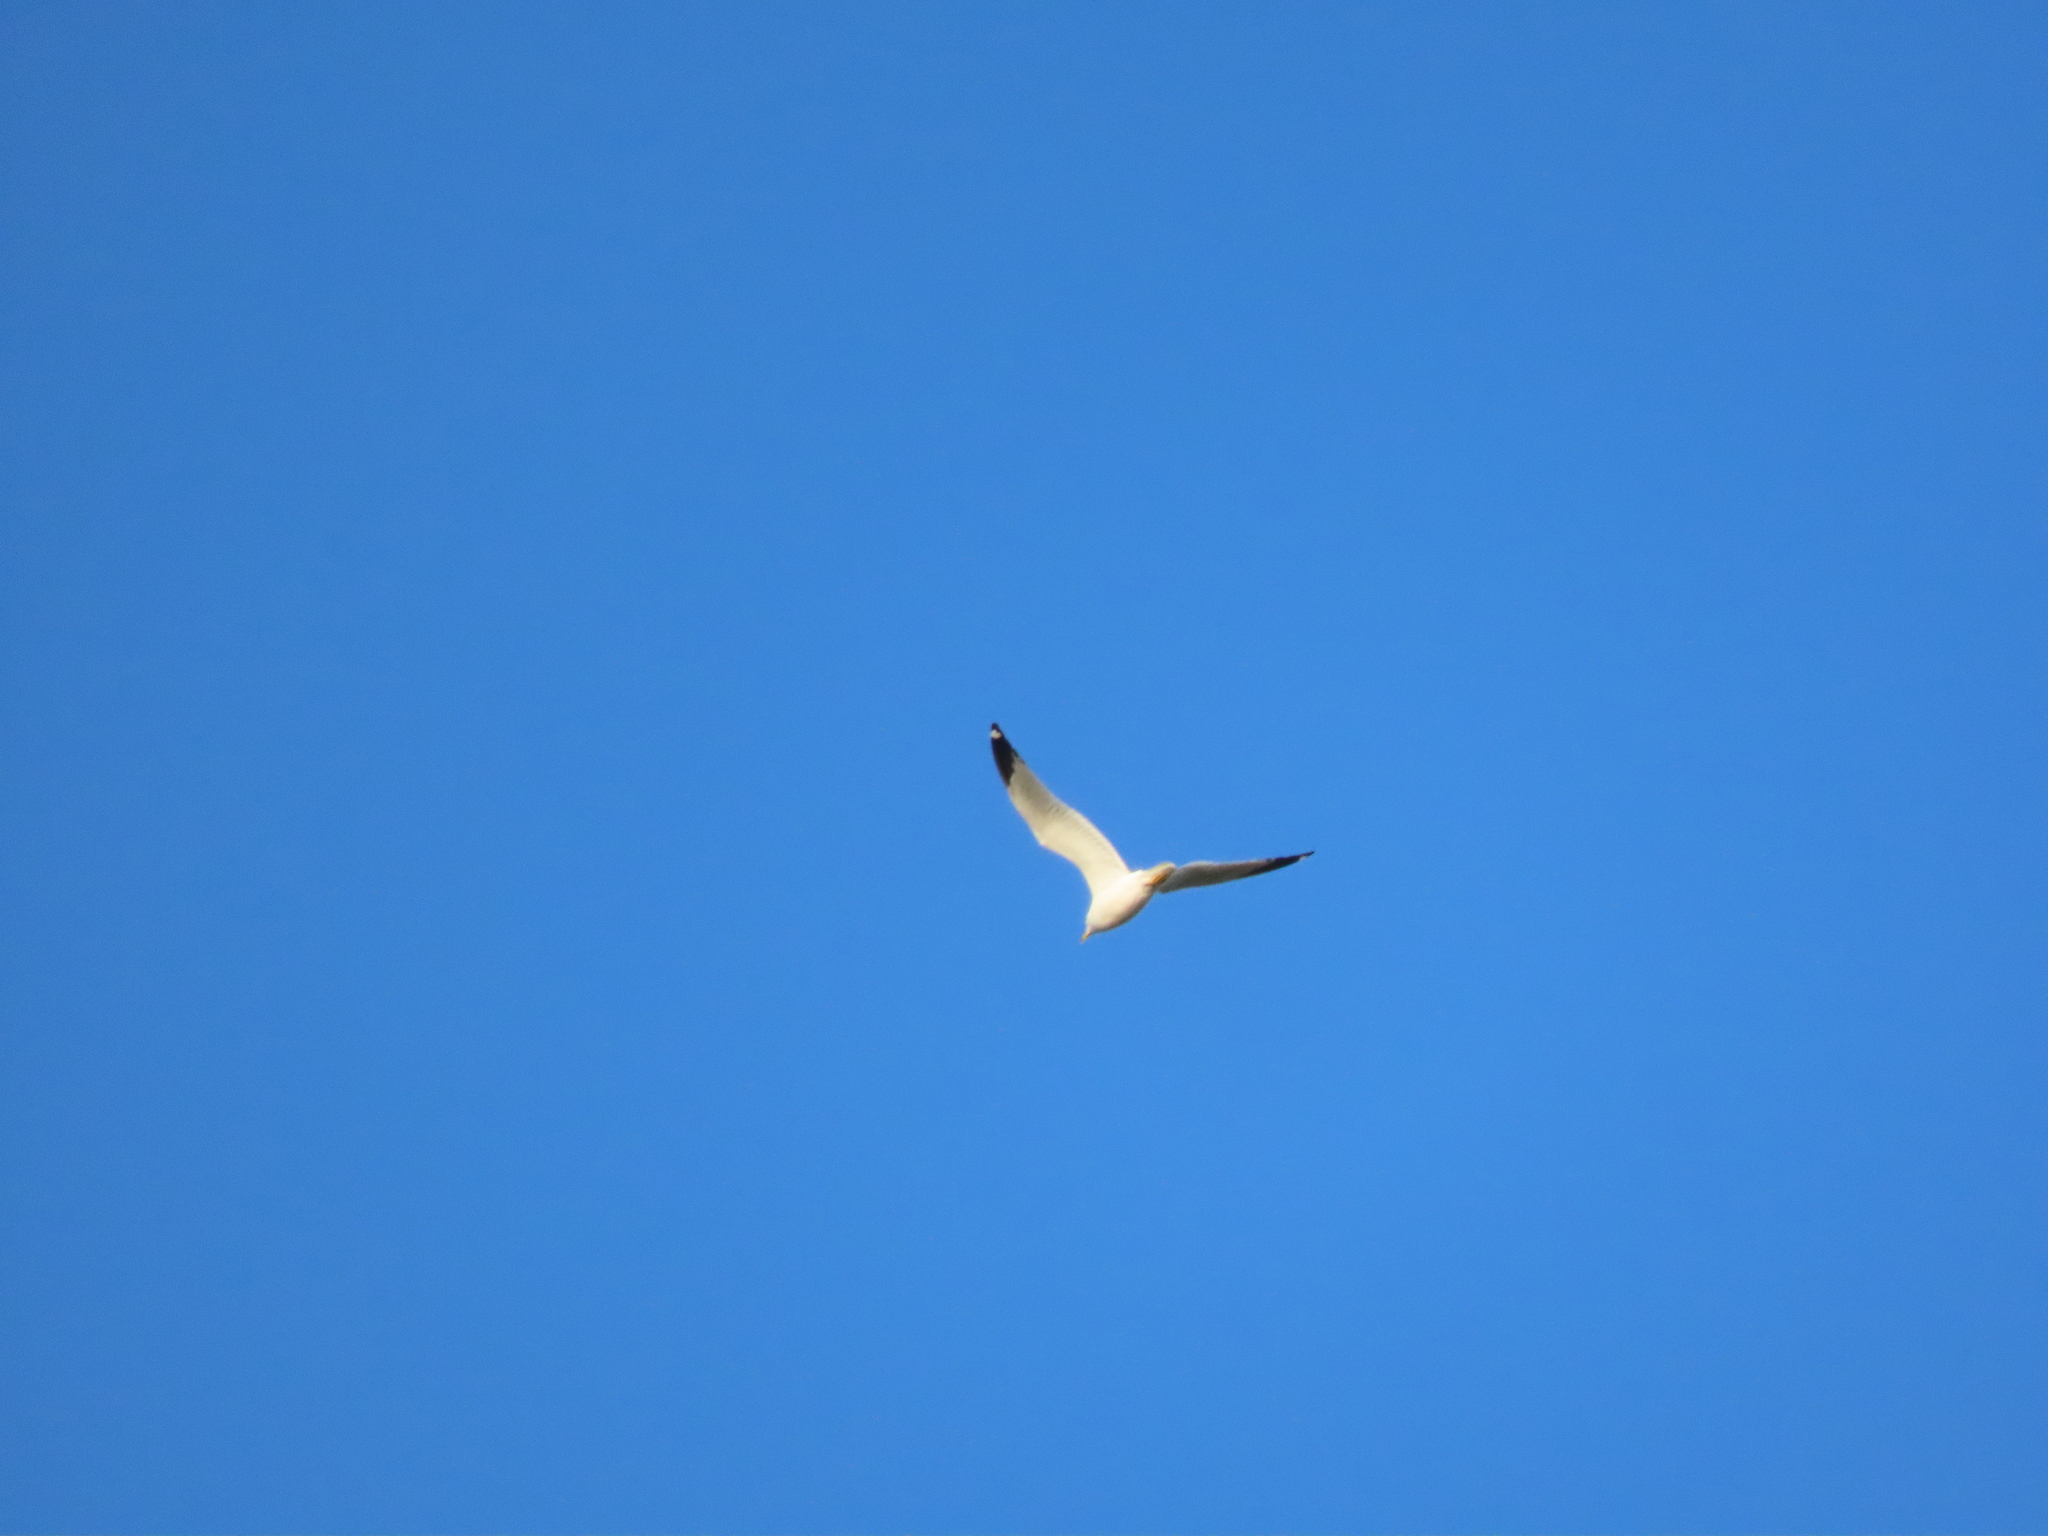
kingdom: Animalia
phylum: Chordata
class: Aves
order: Charadriiformes
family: Laridae
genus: Larus
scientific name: Larus delawarensis
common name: Ring-billed gull
